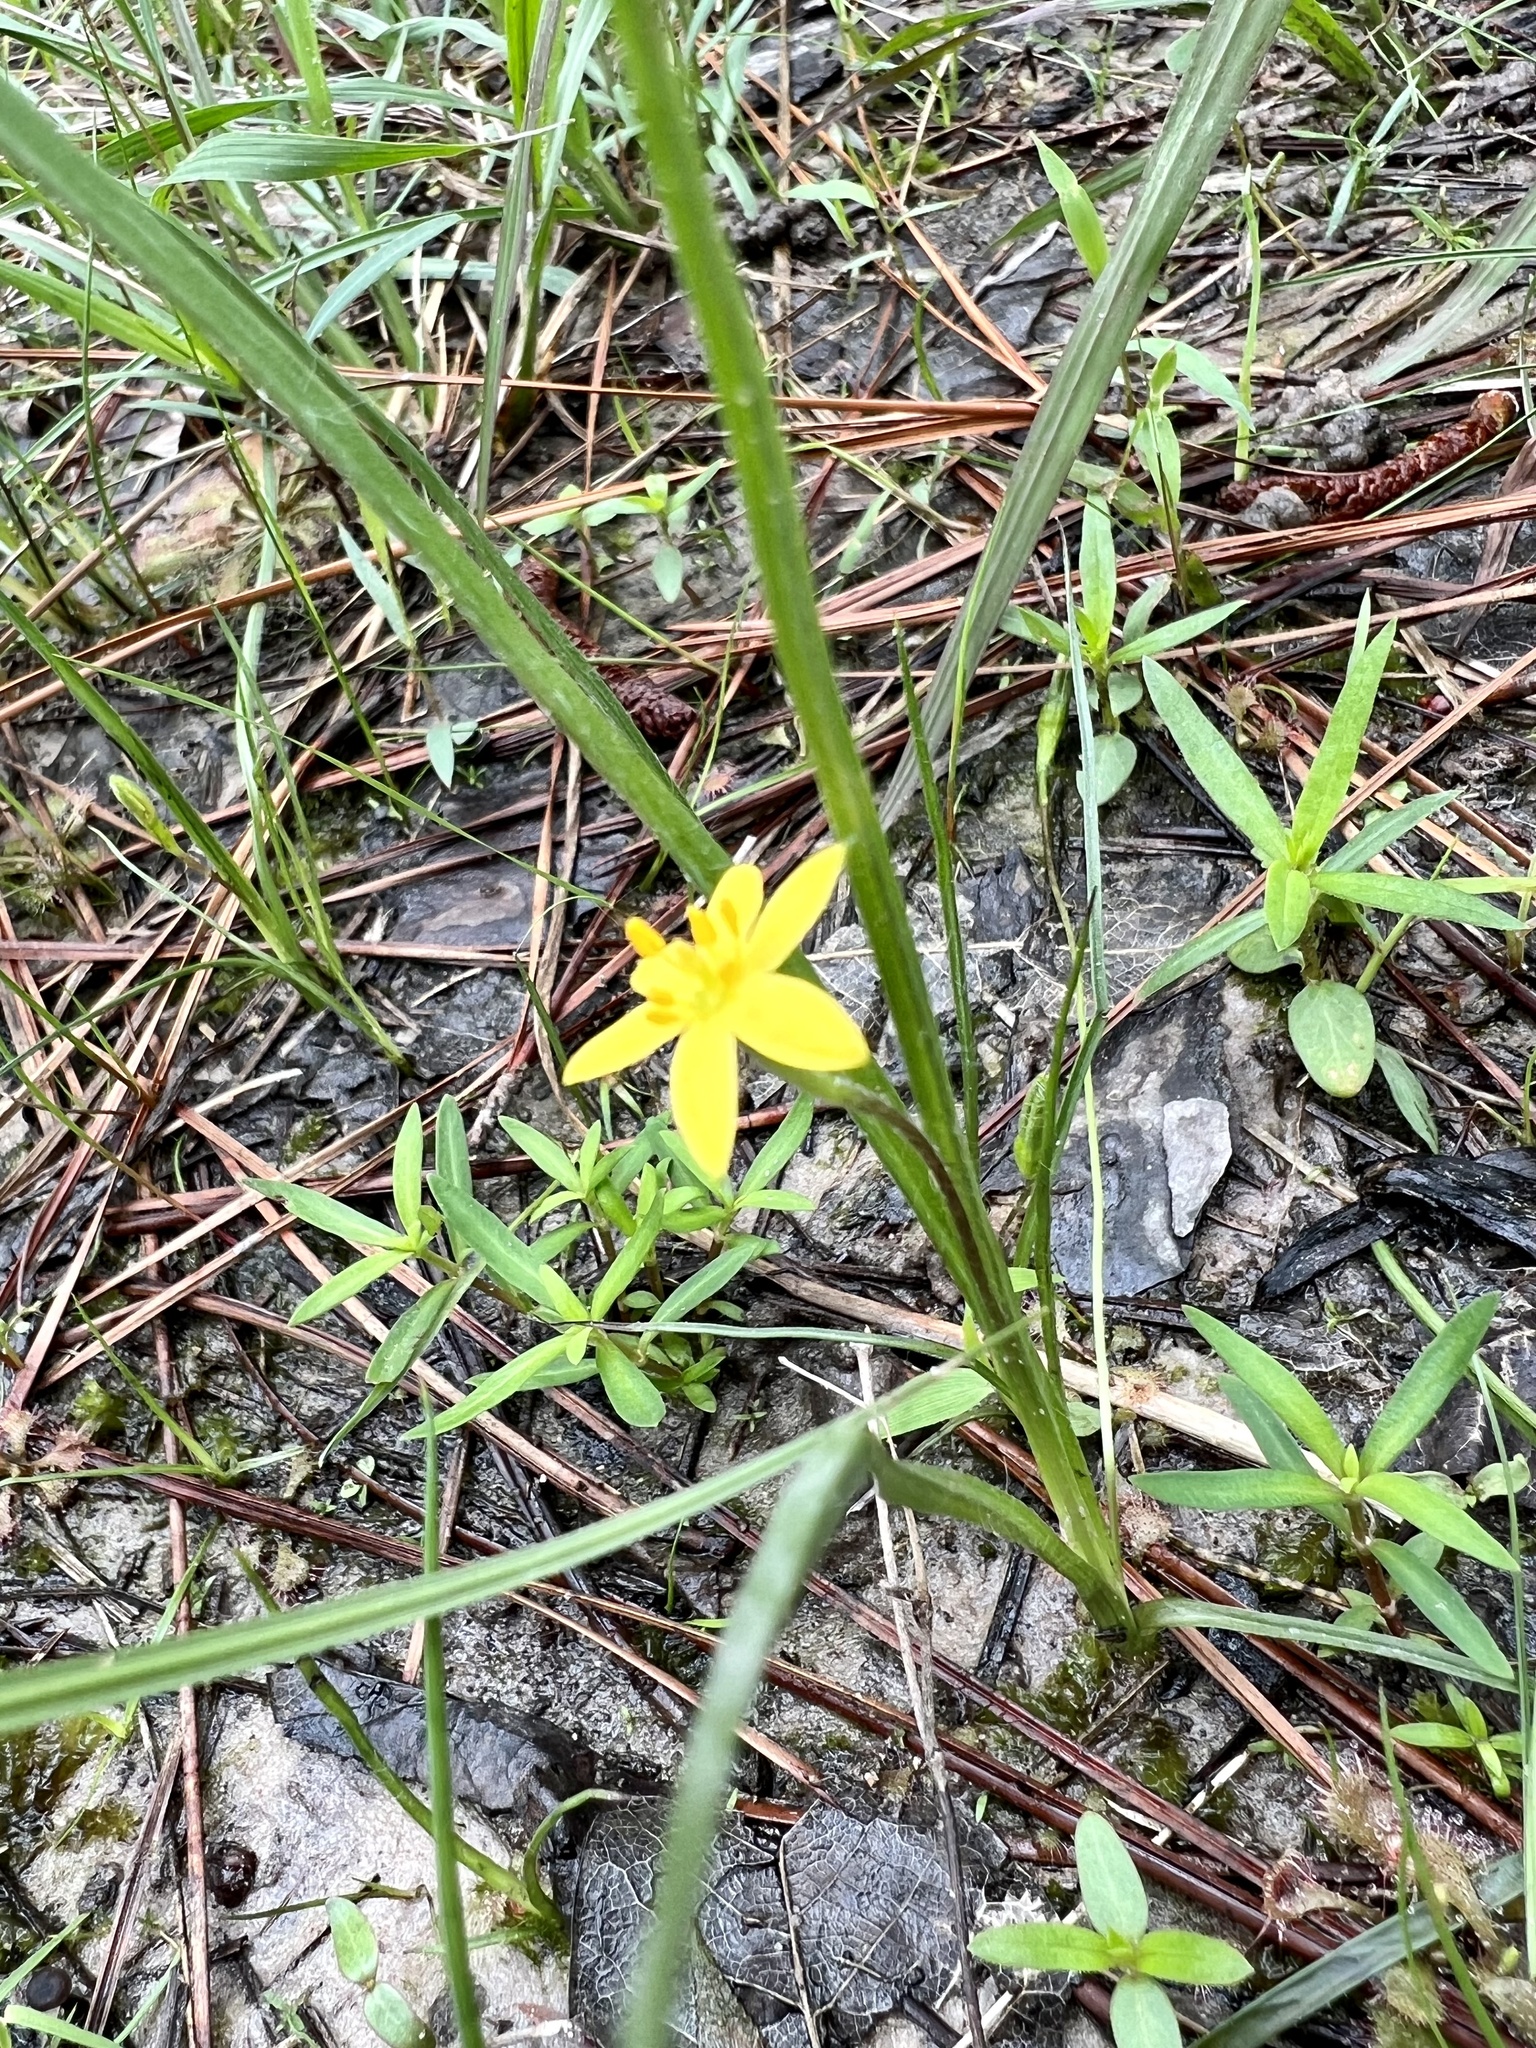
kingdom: Plantae
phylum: Tracheophyta
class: Liliopsida
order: Asparagales
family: Hypoxidaceae
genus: Hypoxis
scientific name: Hypoxis hirsuta
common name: Common goldstar
